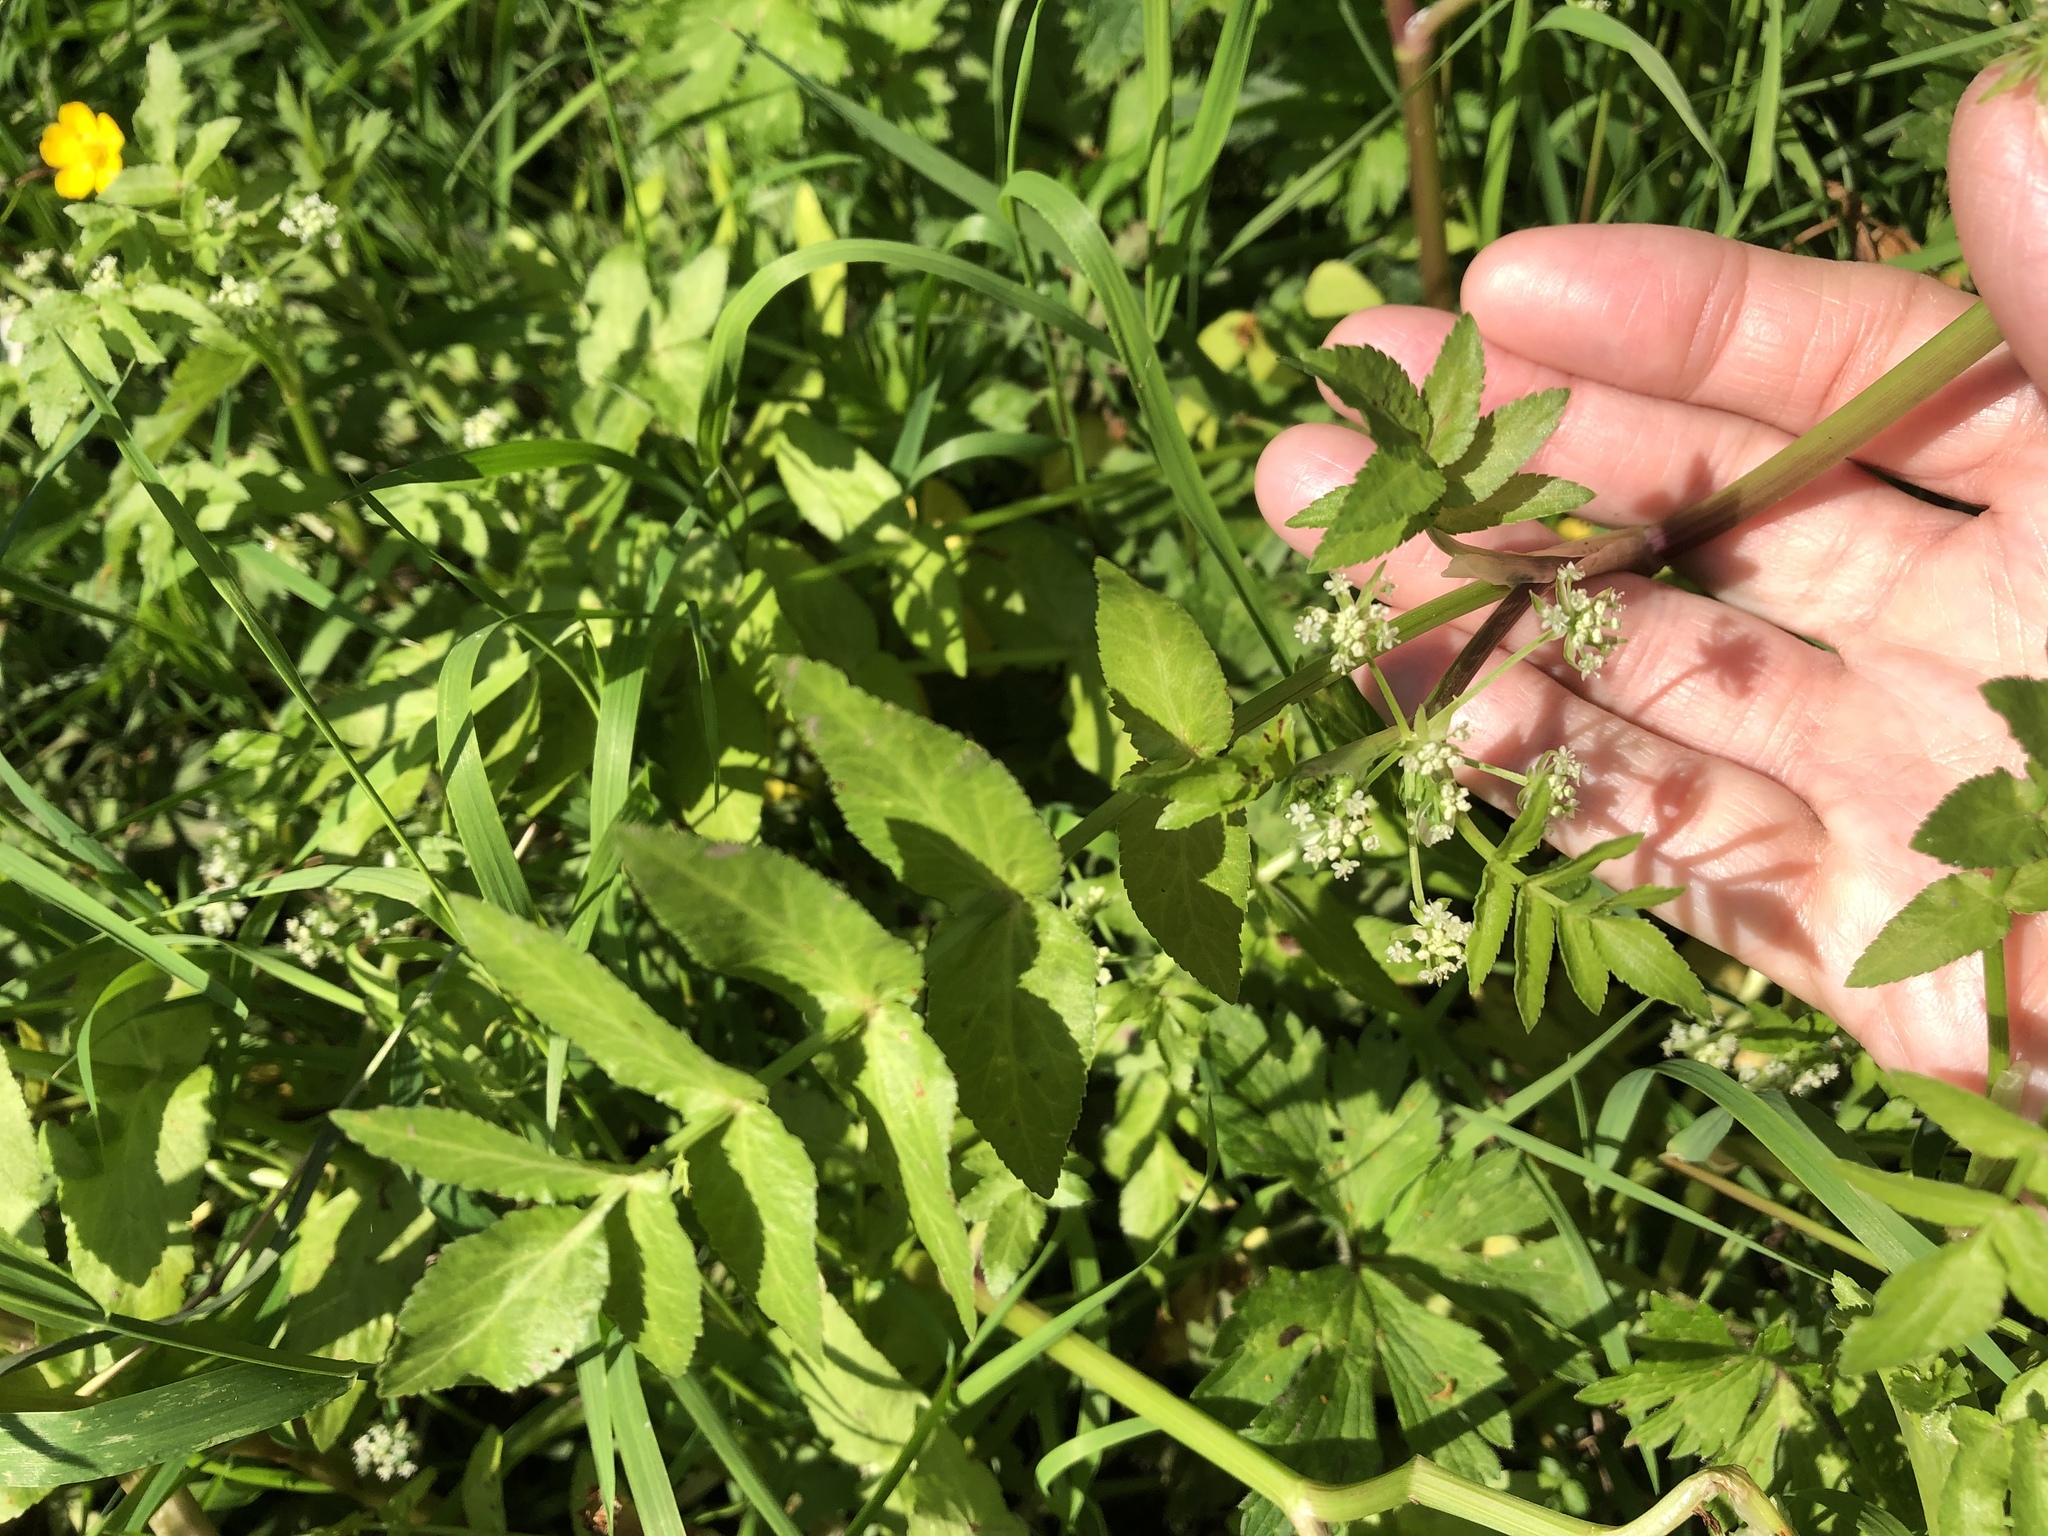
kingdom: Plantae
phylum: Tracheophyta
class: Magnoliopsida
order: Apiales
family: Apiaceae
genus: Helosciadium
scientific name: Helosciadium nodiflorum
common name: Fool's-watercress
